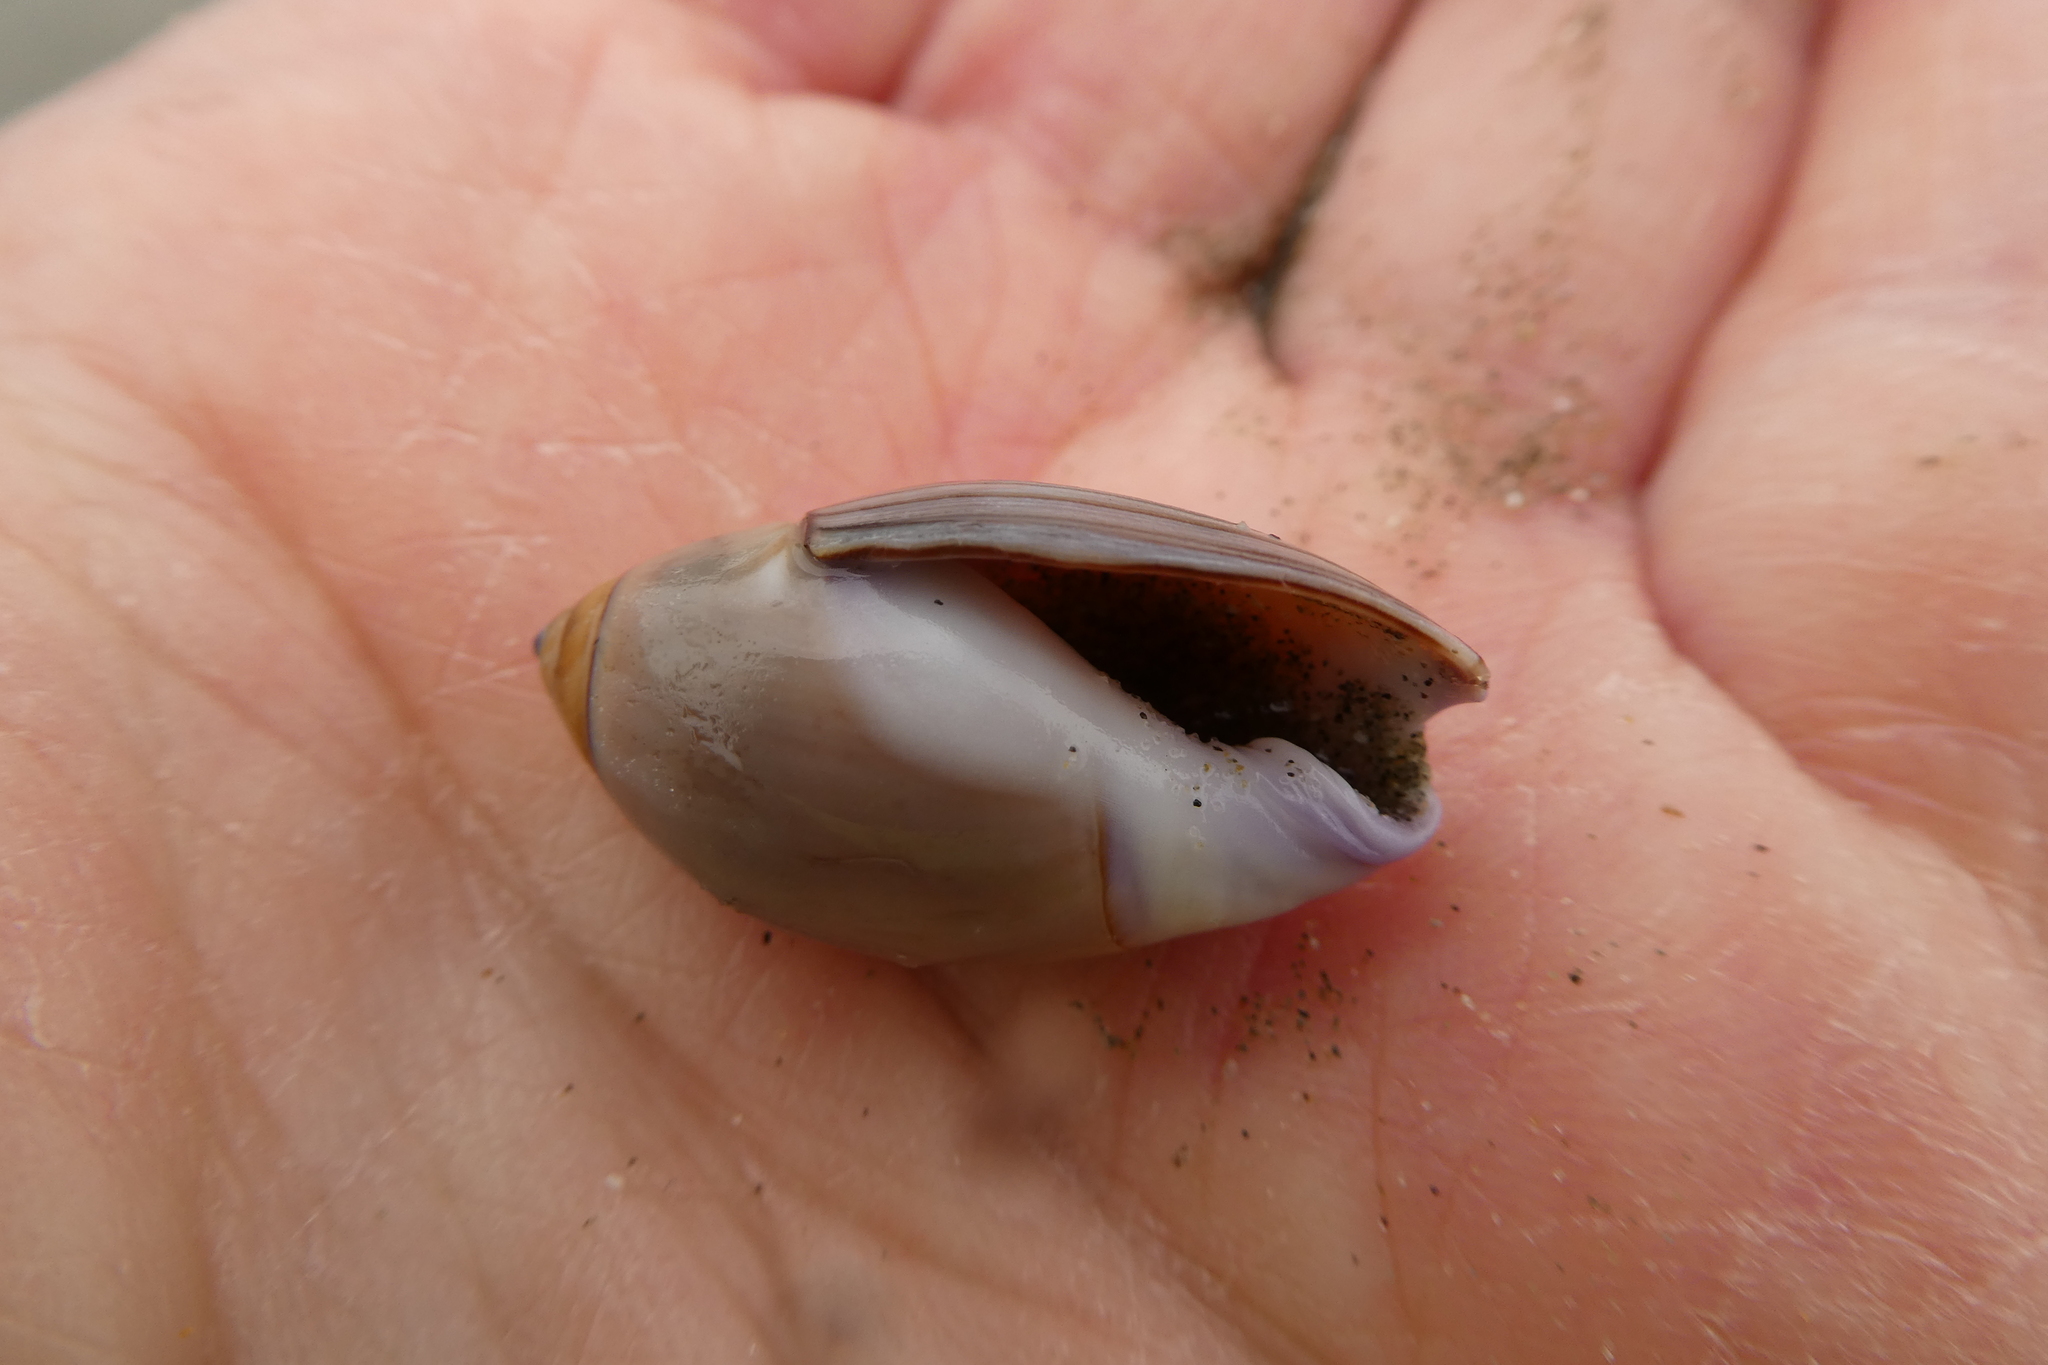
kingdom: Animalia
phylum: Mollusca
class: Gastropoda
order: Neogastropoda
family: Olividae
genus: Callianax
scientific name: Callianax biplicata
